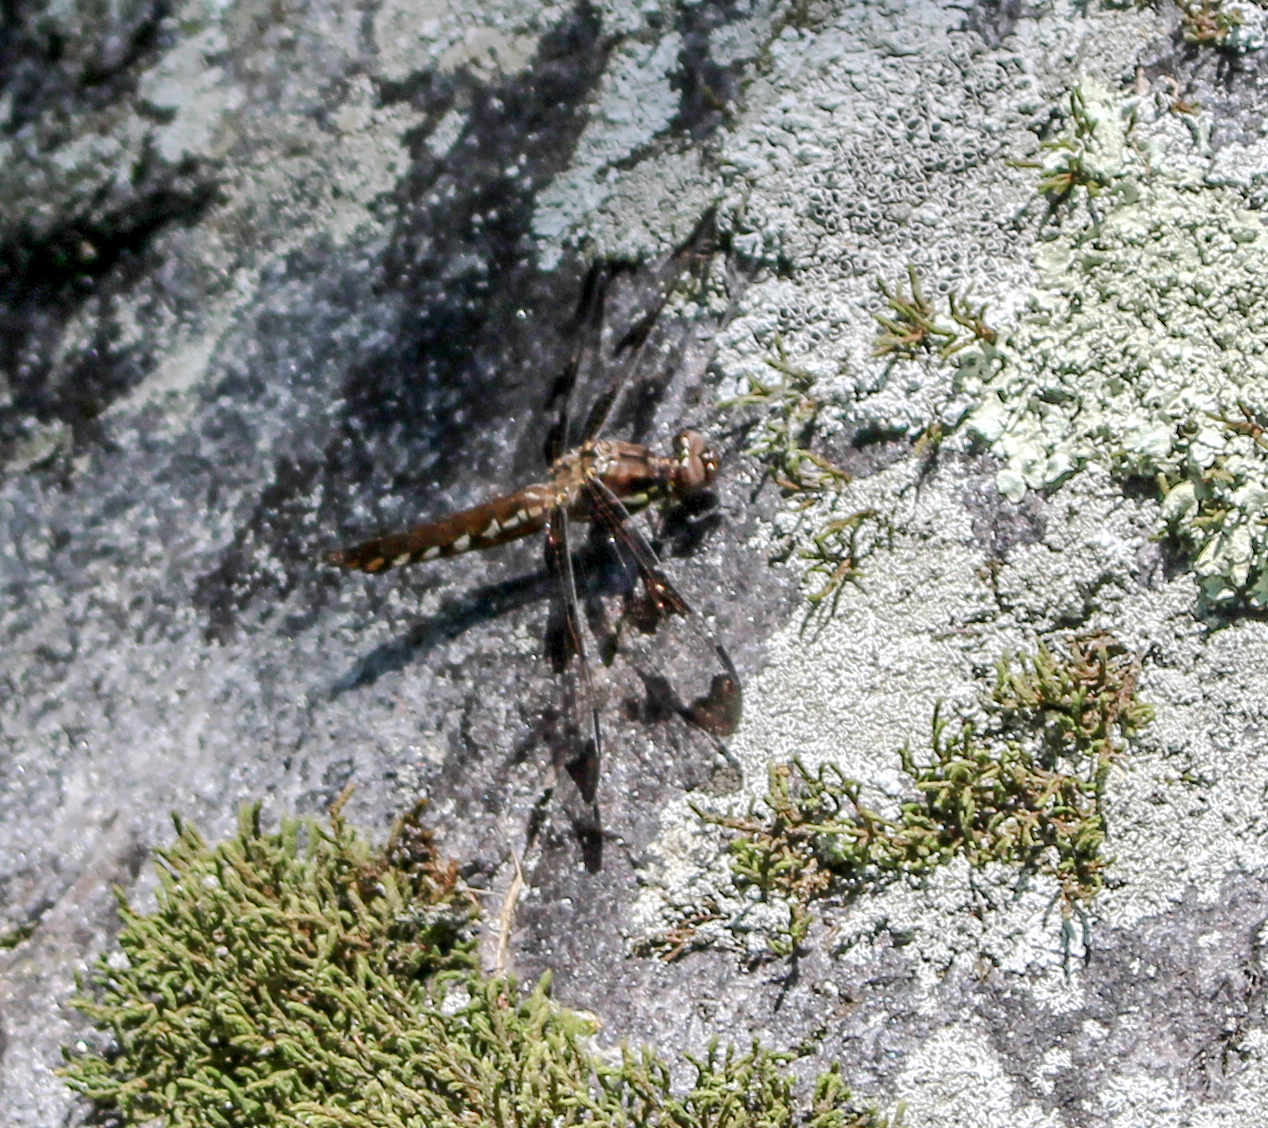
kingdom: Animalia
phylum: Arthropoda
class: Insecta
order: Odonata
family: Libellulidae
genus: Plathemis
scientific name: Plathemis lydia
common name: Common whitetail
